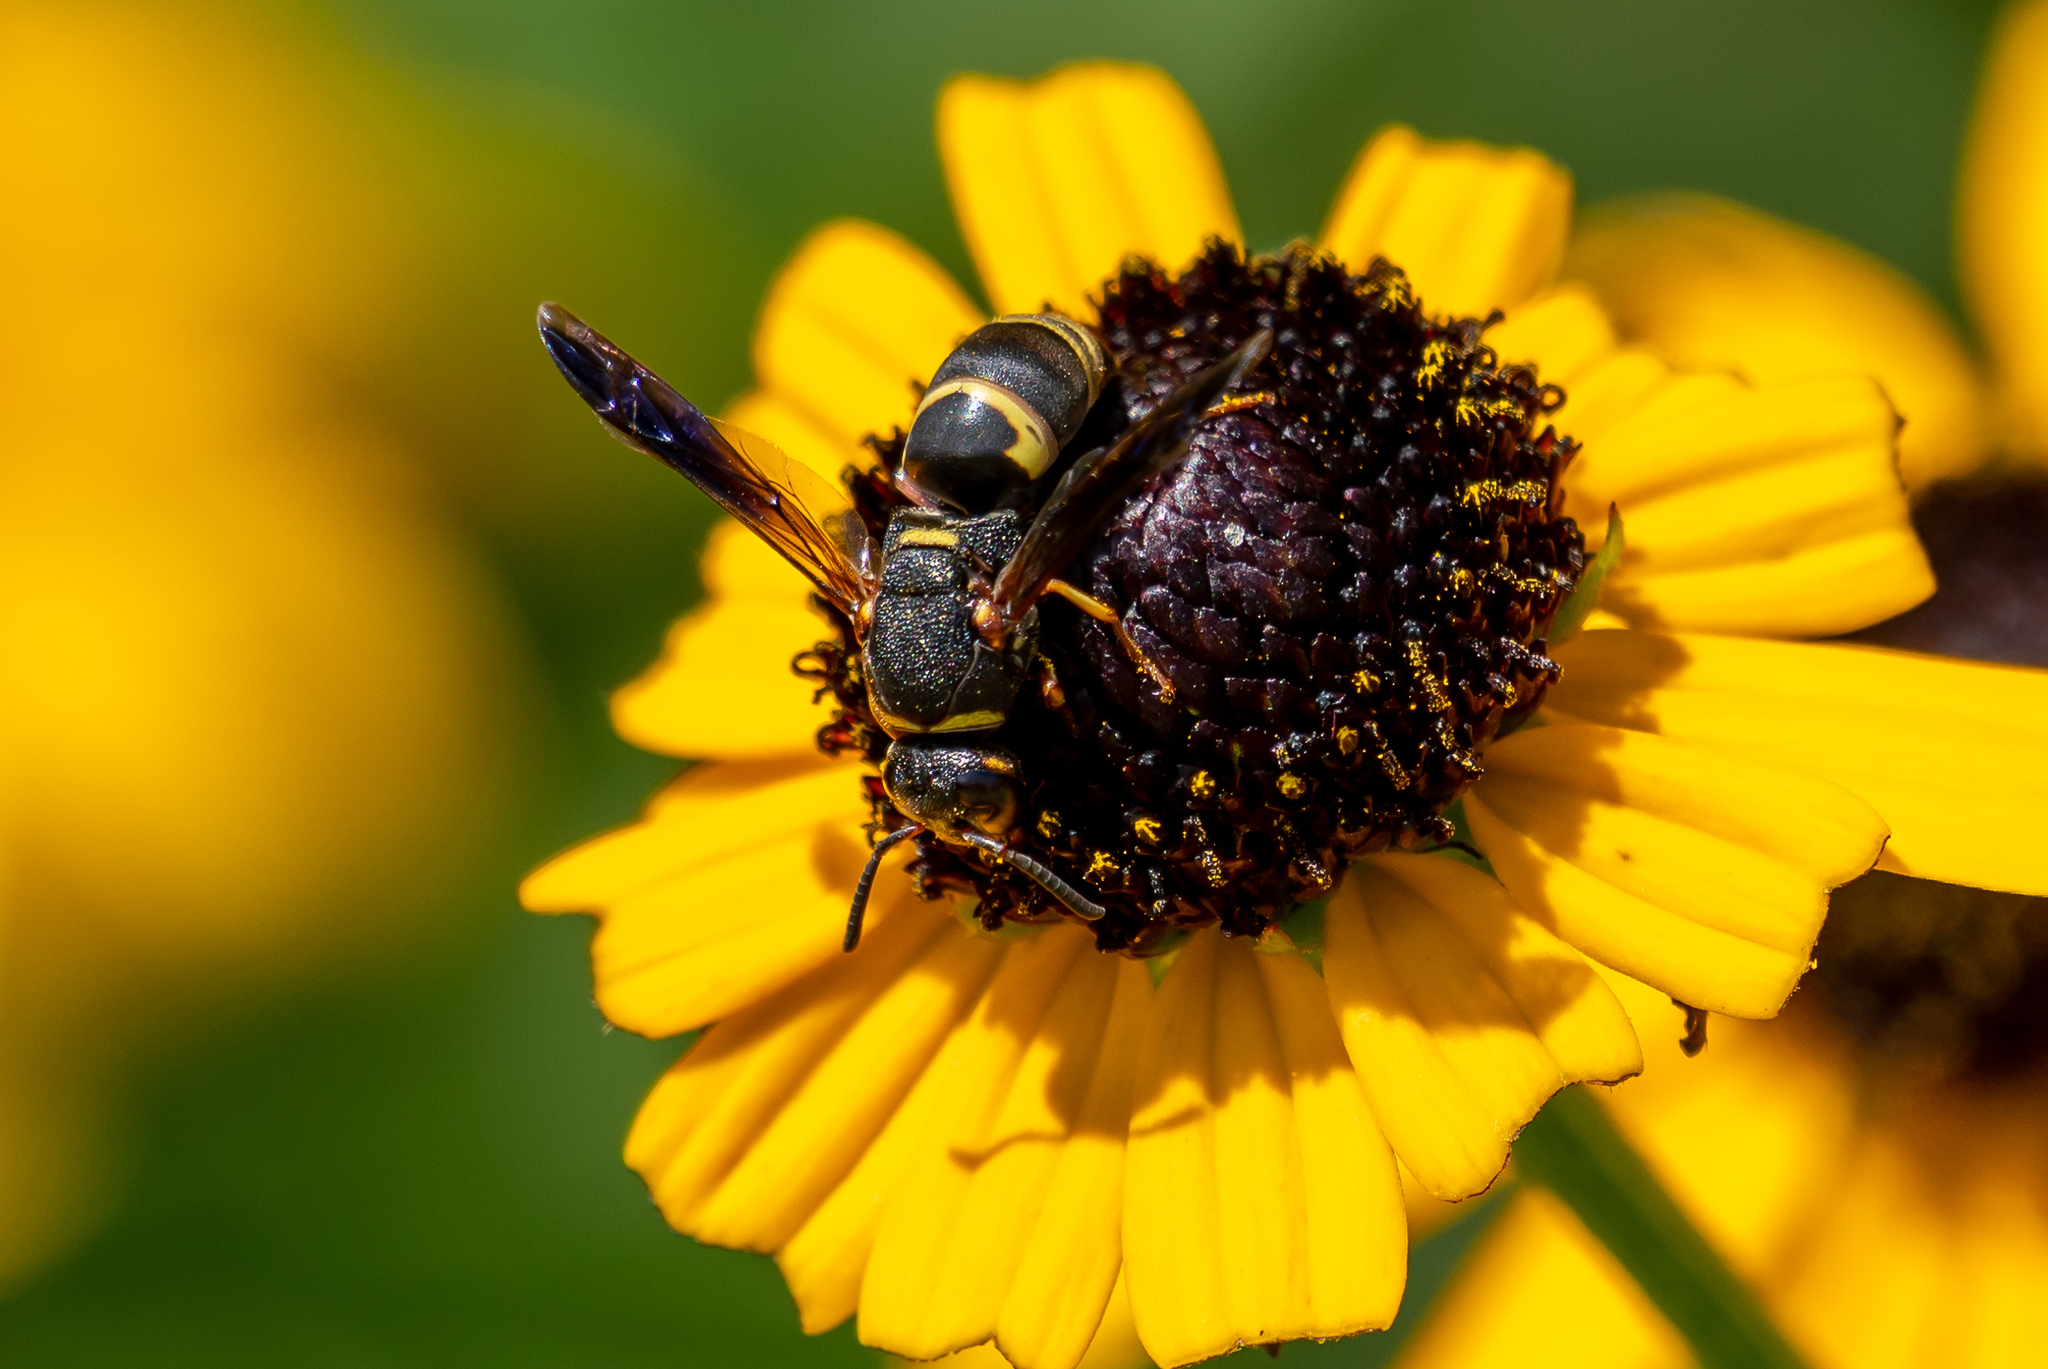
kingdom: Animalia
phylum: Arthropoda
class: Insecta
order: Hymenoptera
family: Eumenidae
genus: Euodynerus
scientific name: Euodynerus hidalgo
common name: Wasp
